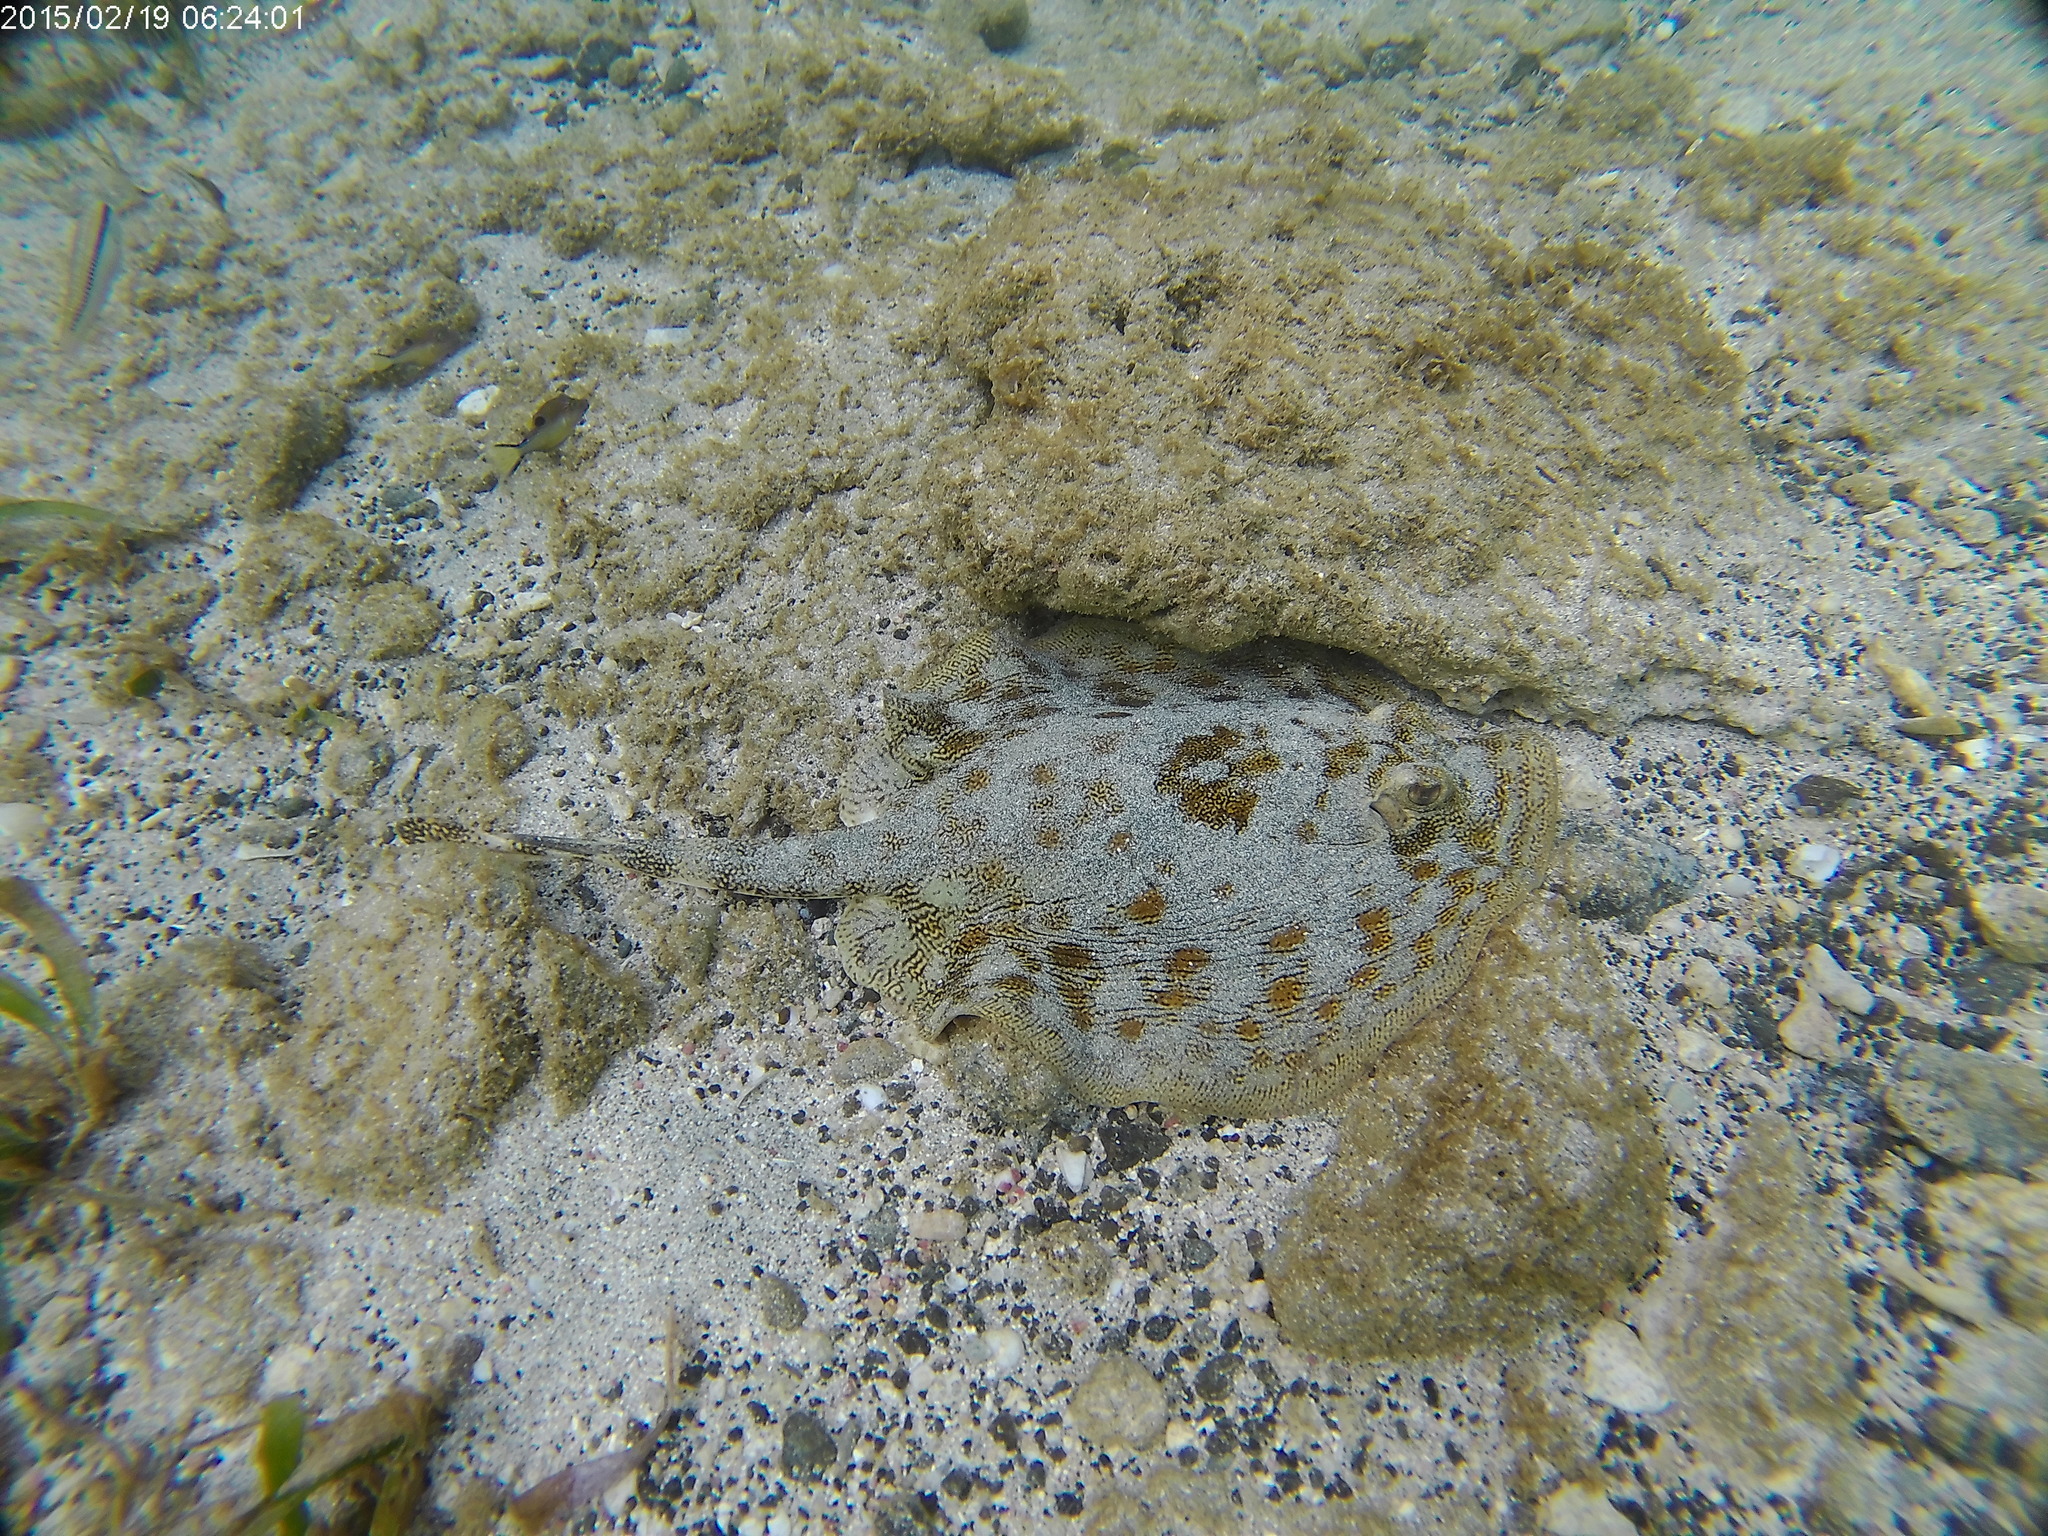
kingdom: Animalia
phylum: Chordata
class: Elasmobranchii
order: Myliobatiformes
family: Urotrygonidae
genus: Urobatis
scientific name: Urobatis jamaicensis
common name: Yellow stingray
